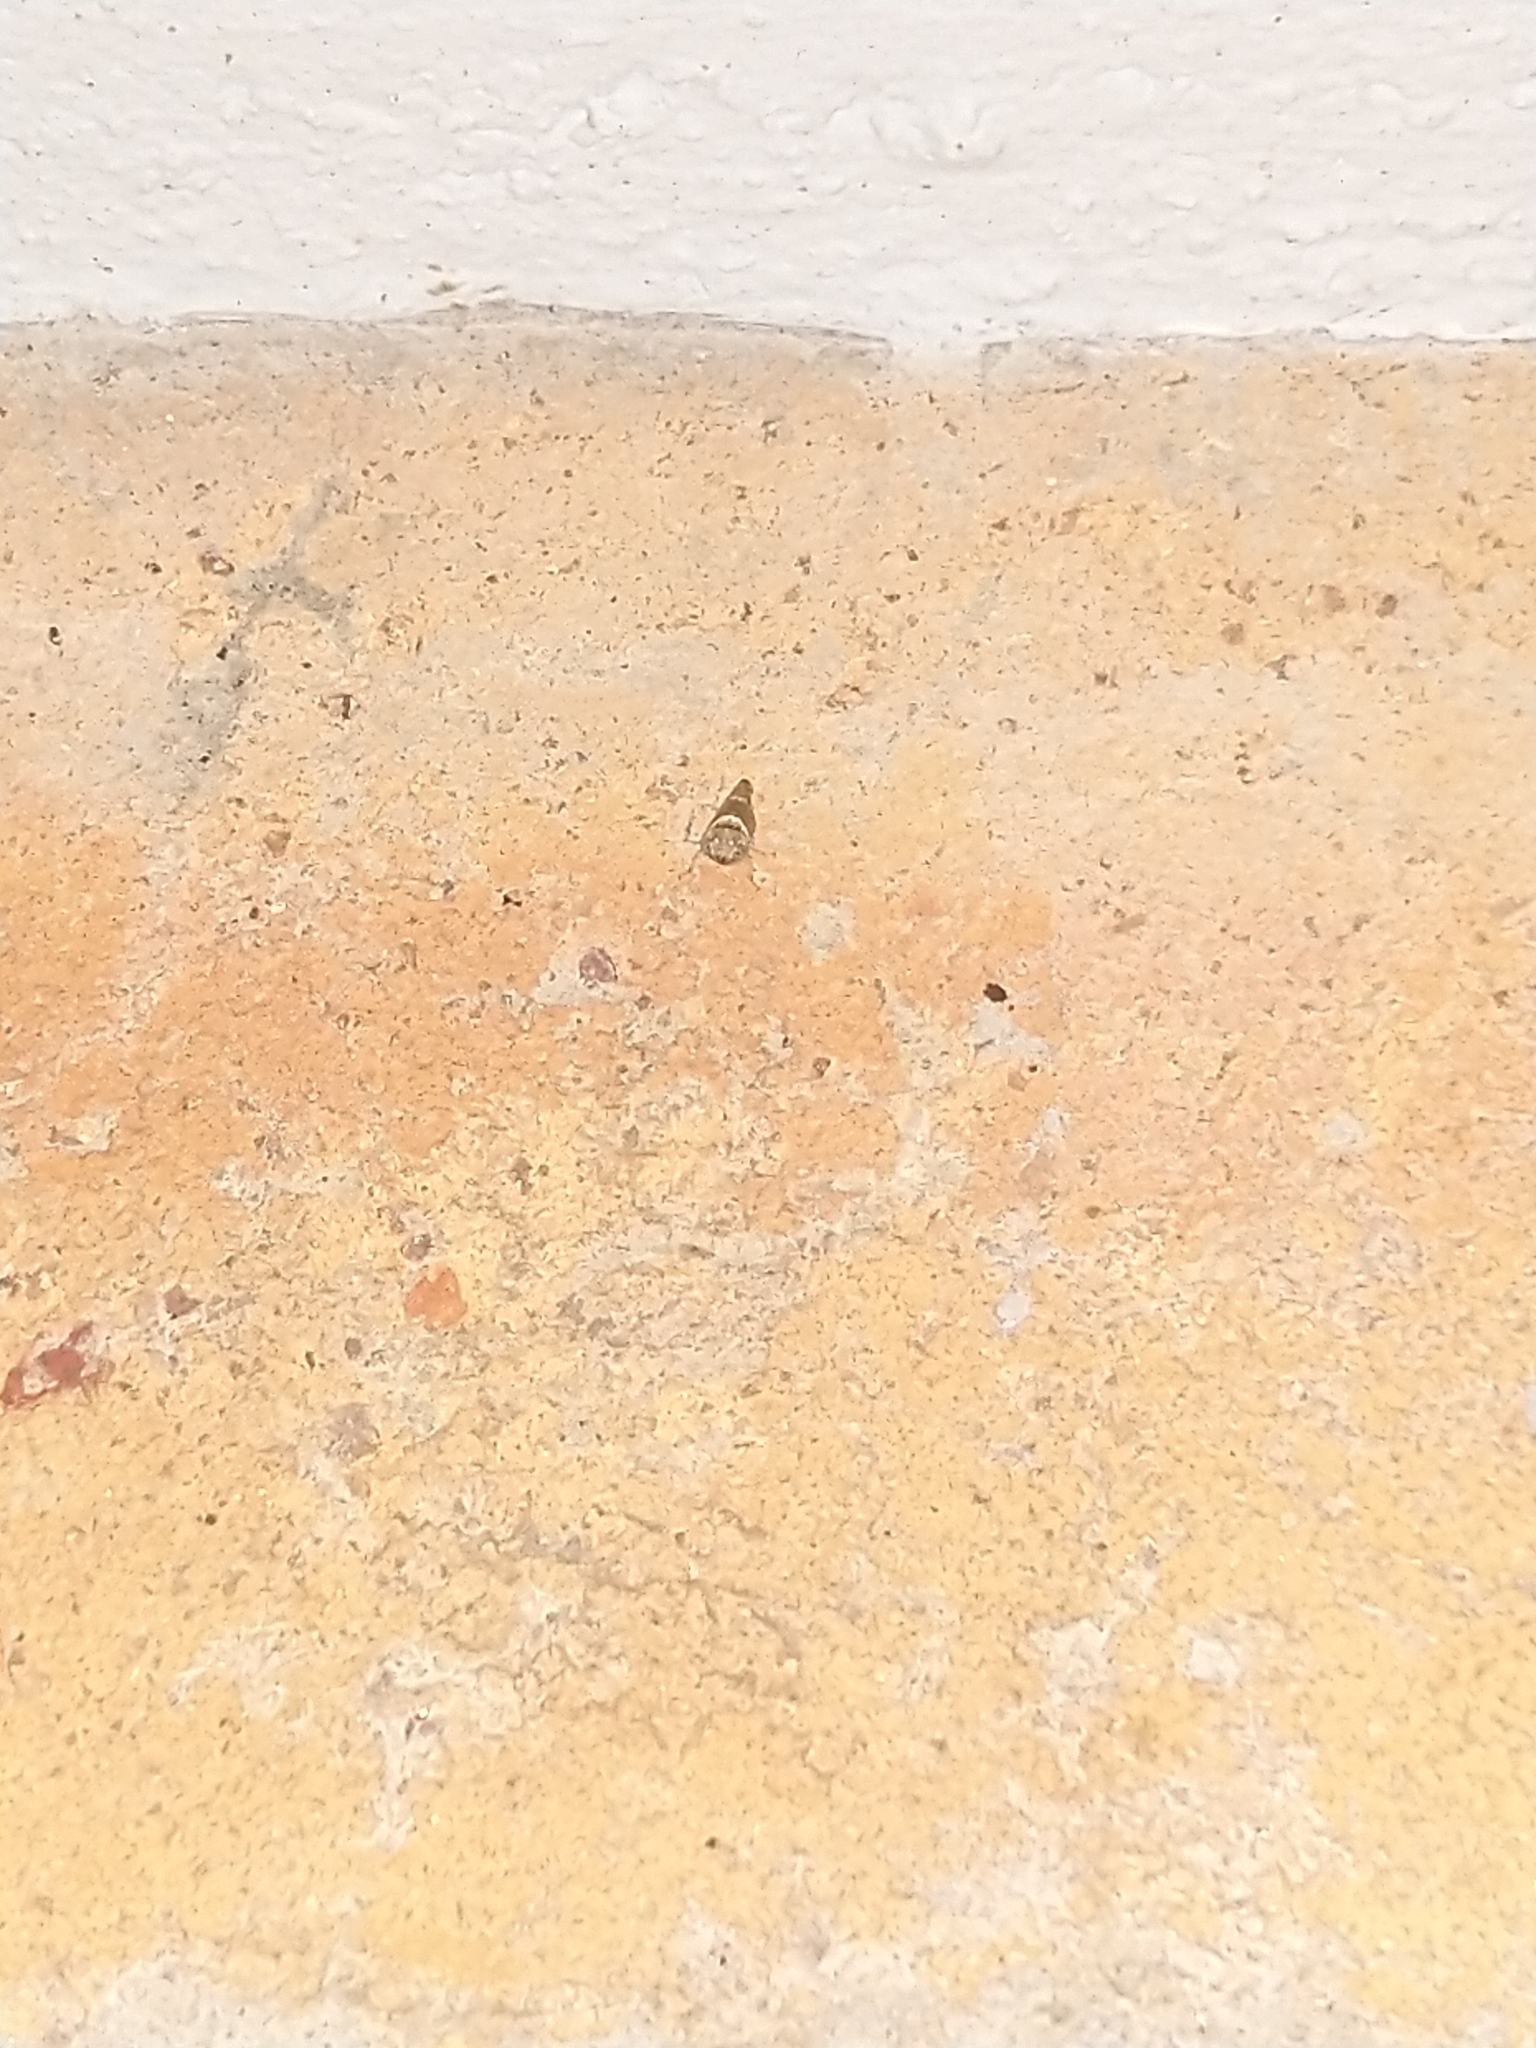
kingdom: Animalia
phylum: Arthropoda
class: Insecta
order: Hemiptera
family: Cicadellidae
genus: Idioscopus
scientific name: Idioscopus nitidulus
